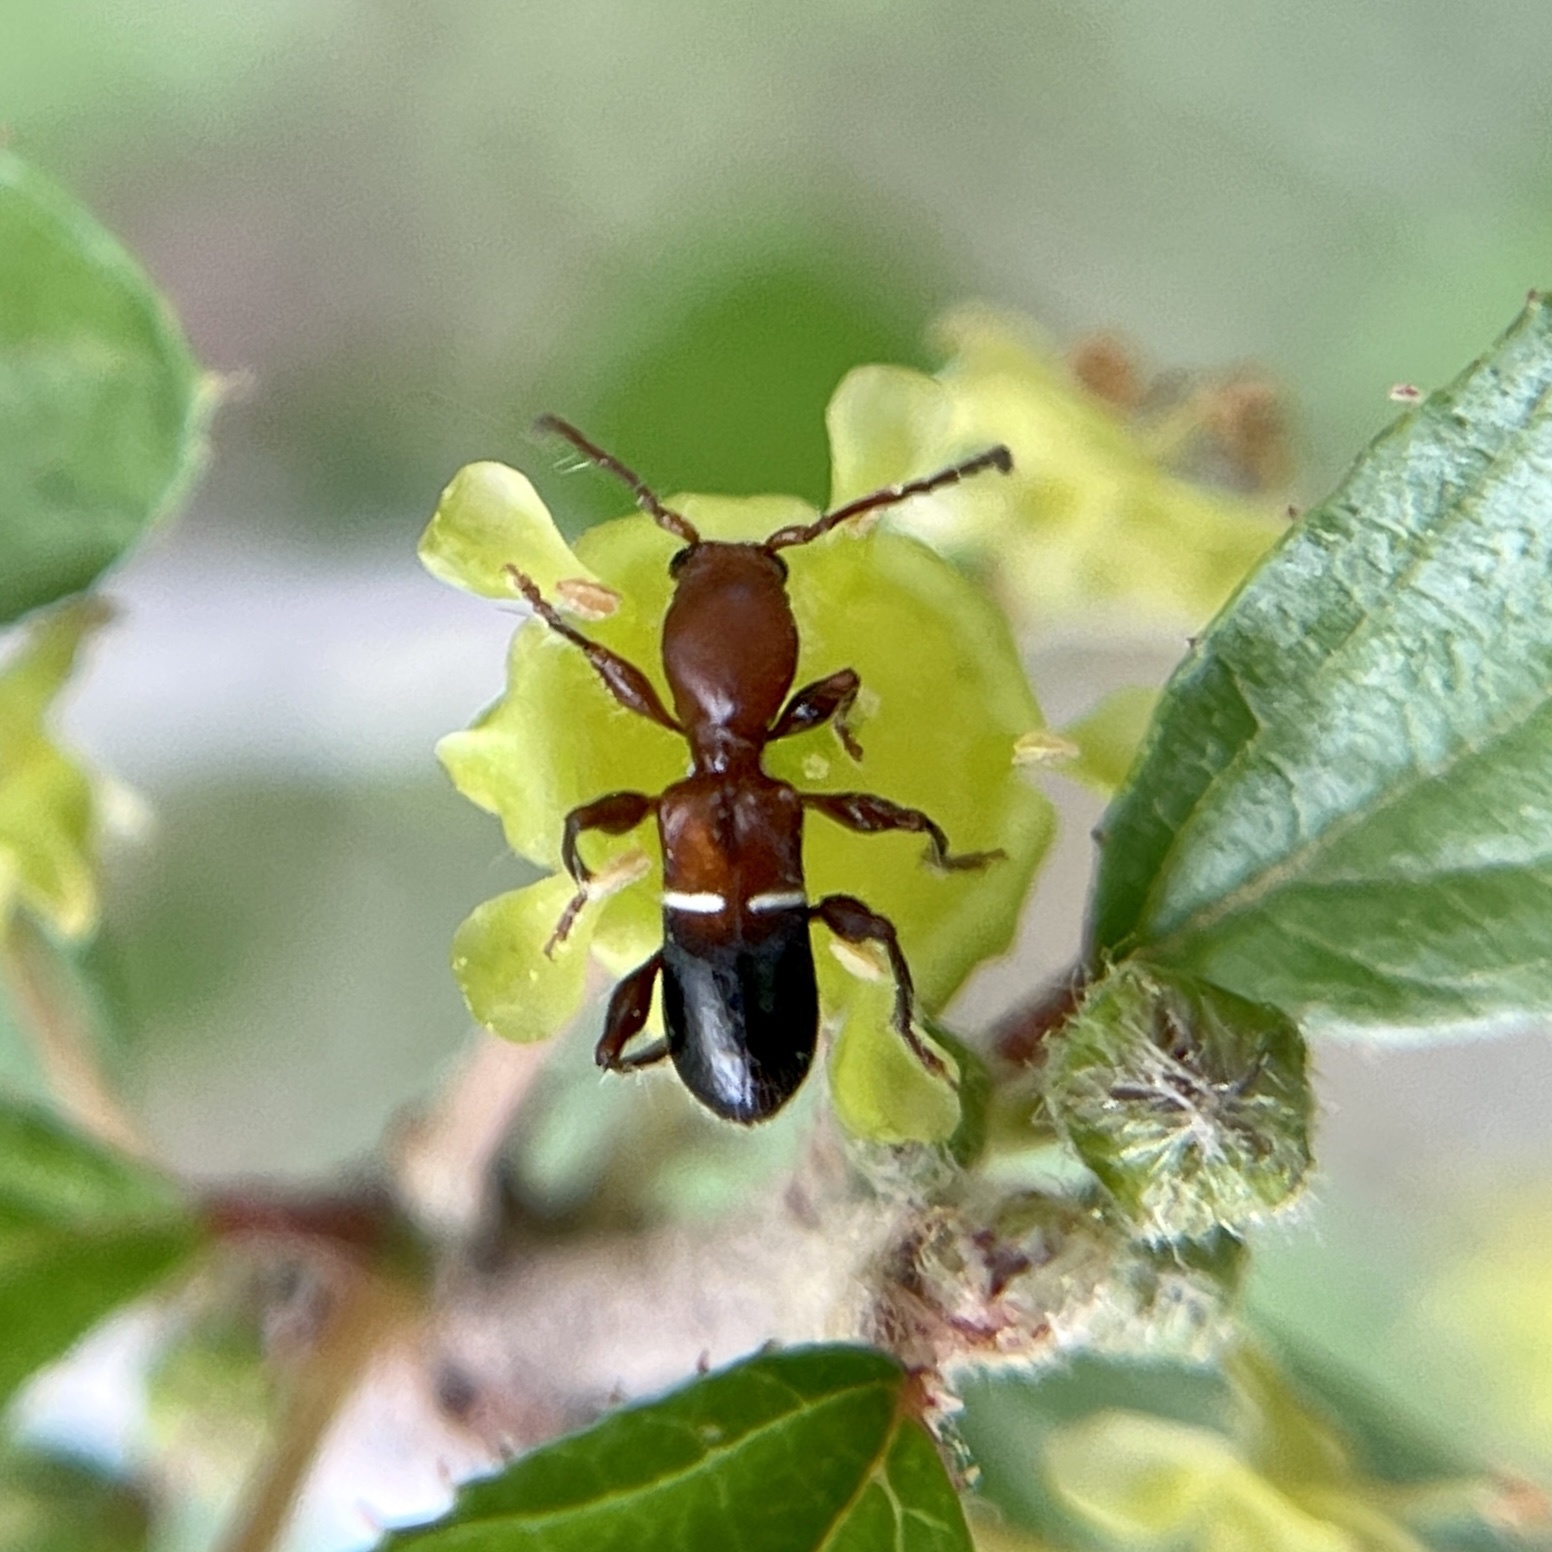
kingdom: Animalia
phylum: Arthropoda
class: Insecta
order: Coleoptera
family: Cerambycidae
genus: Euderces
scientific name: Euderces reichei
